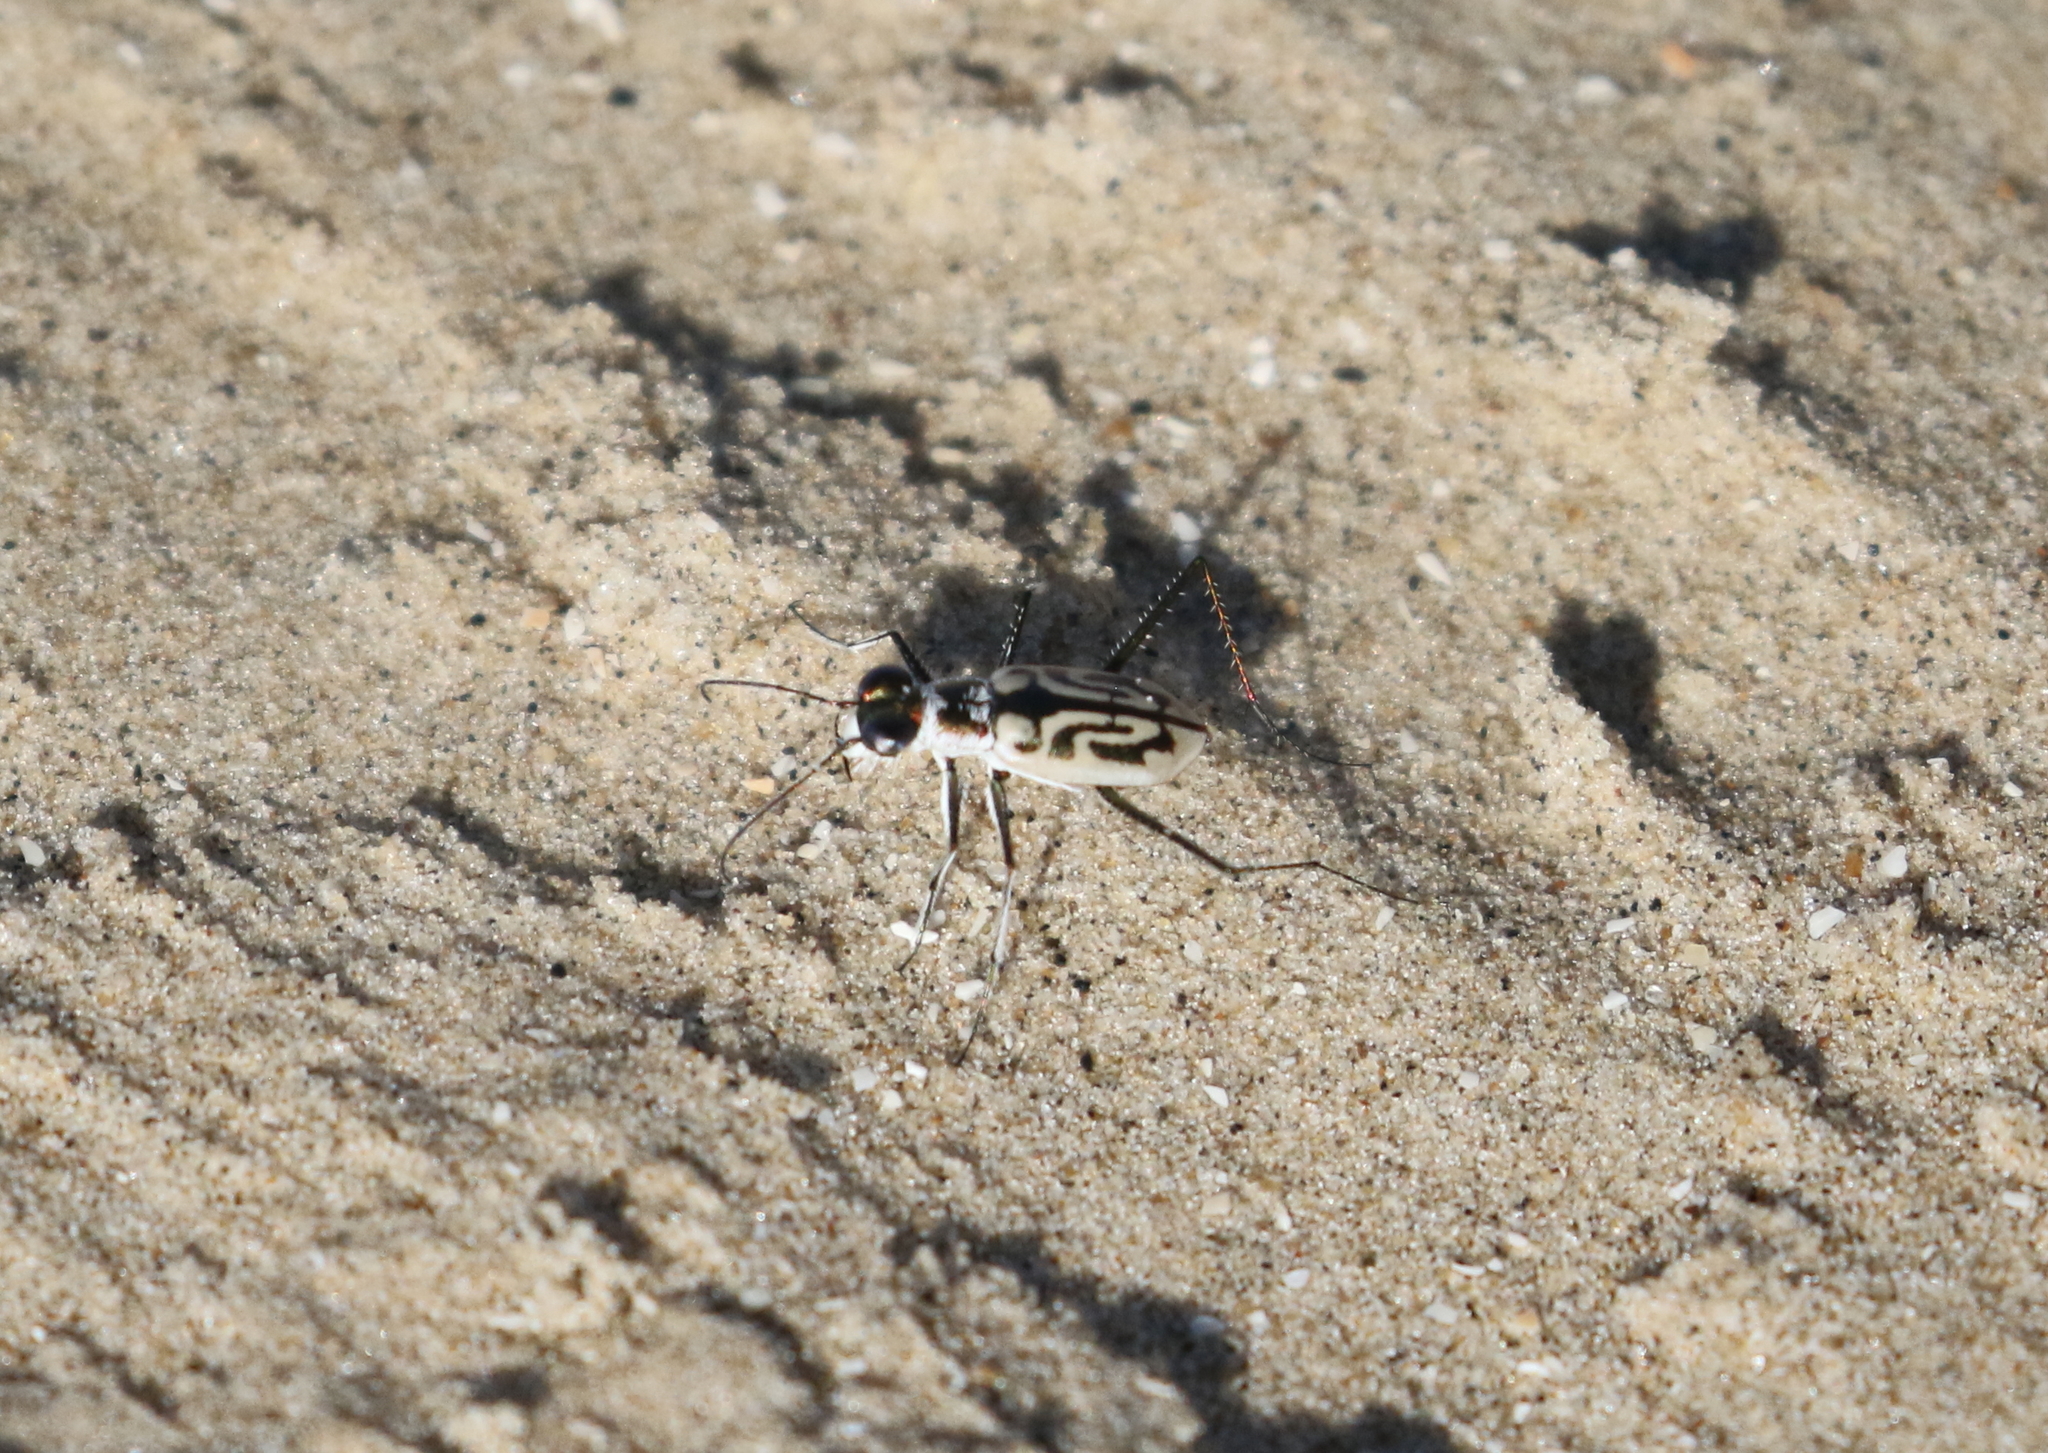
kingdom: Animalia
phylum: Arthropoda
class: Insecta
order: Coleoptera
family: Carabidae
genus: Habroscelimorpha
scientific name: Habroscelimorpha dorsalis
